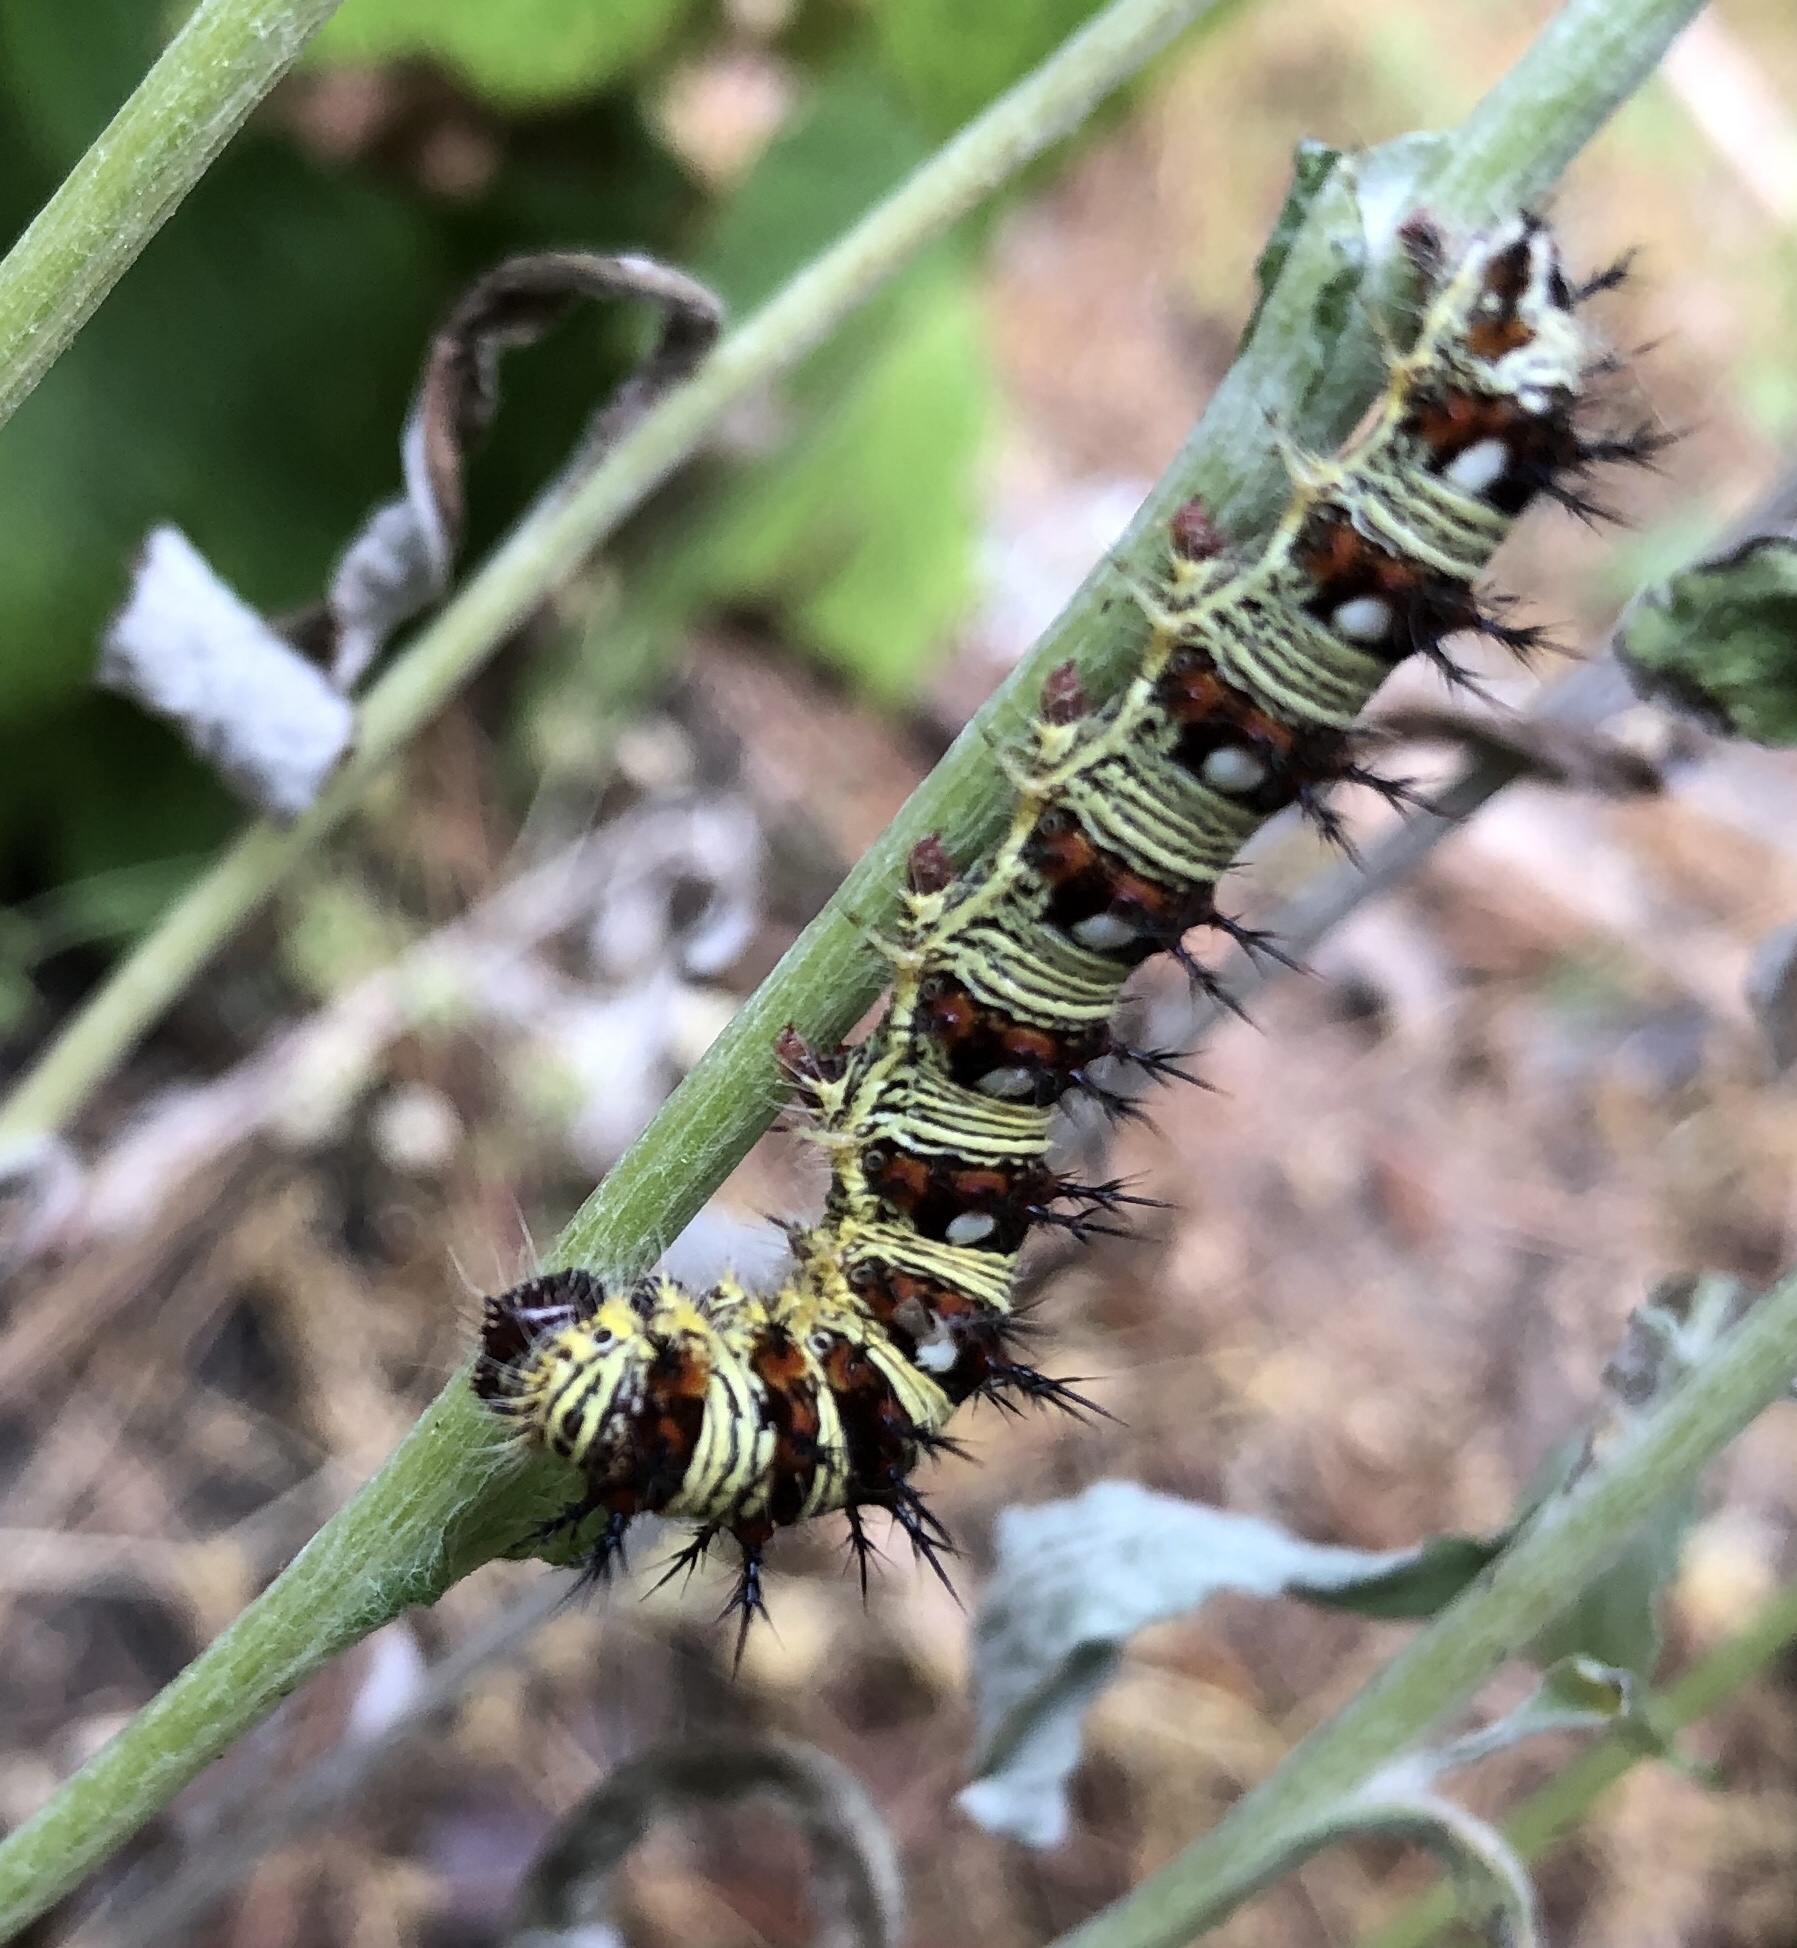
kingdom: Animalia
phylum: Arthropoda
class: Insecta
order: Lepidoptera
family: Nymphalidae
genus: Vanessa
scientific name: Vanessa virginiensis
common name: American lady
